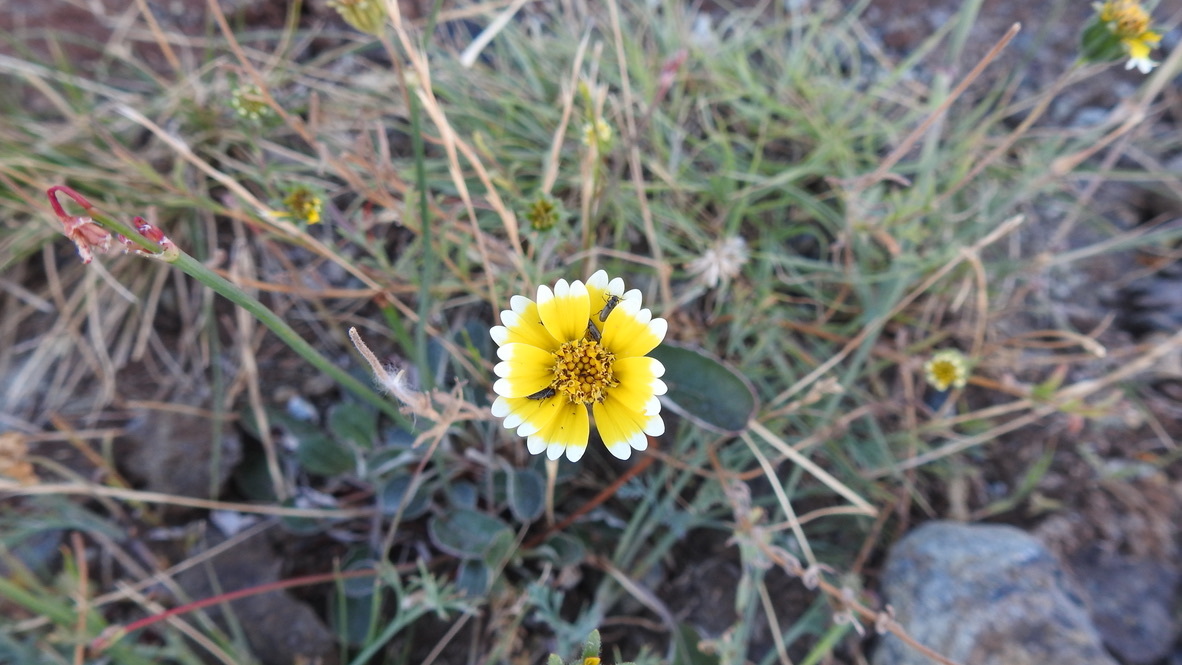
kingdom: Plantae
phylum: Tracheophyta
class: Magnoliopsida
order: Asterales
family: Asteraceae
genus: Layia
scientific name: Layia platyglossa
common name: Tidy-tips
